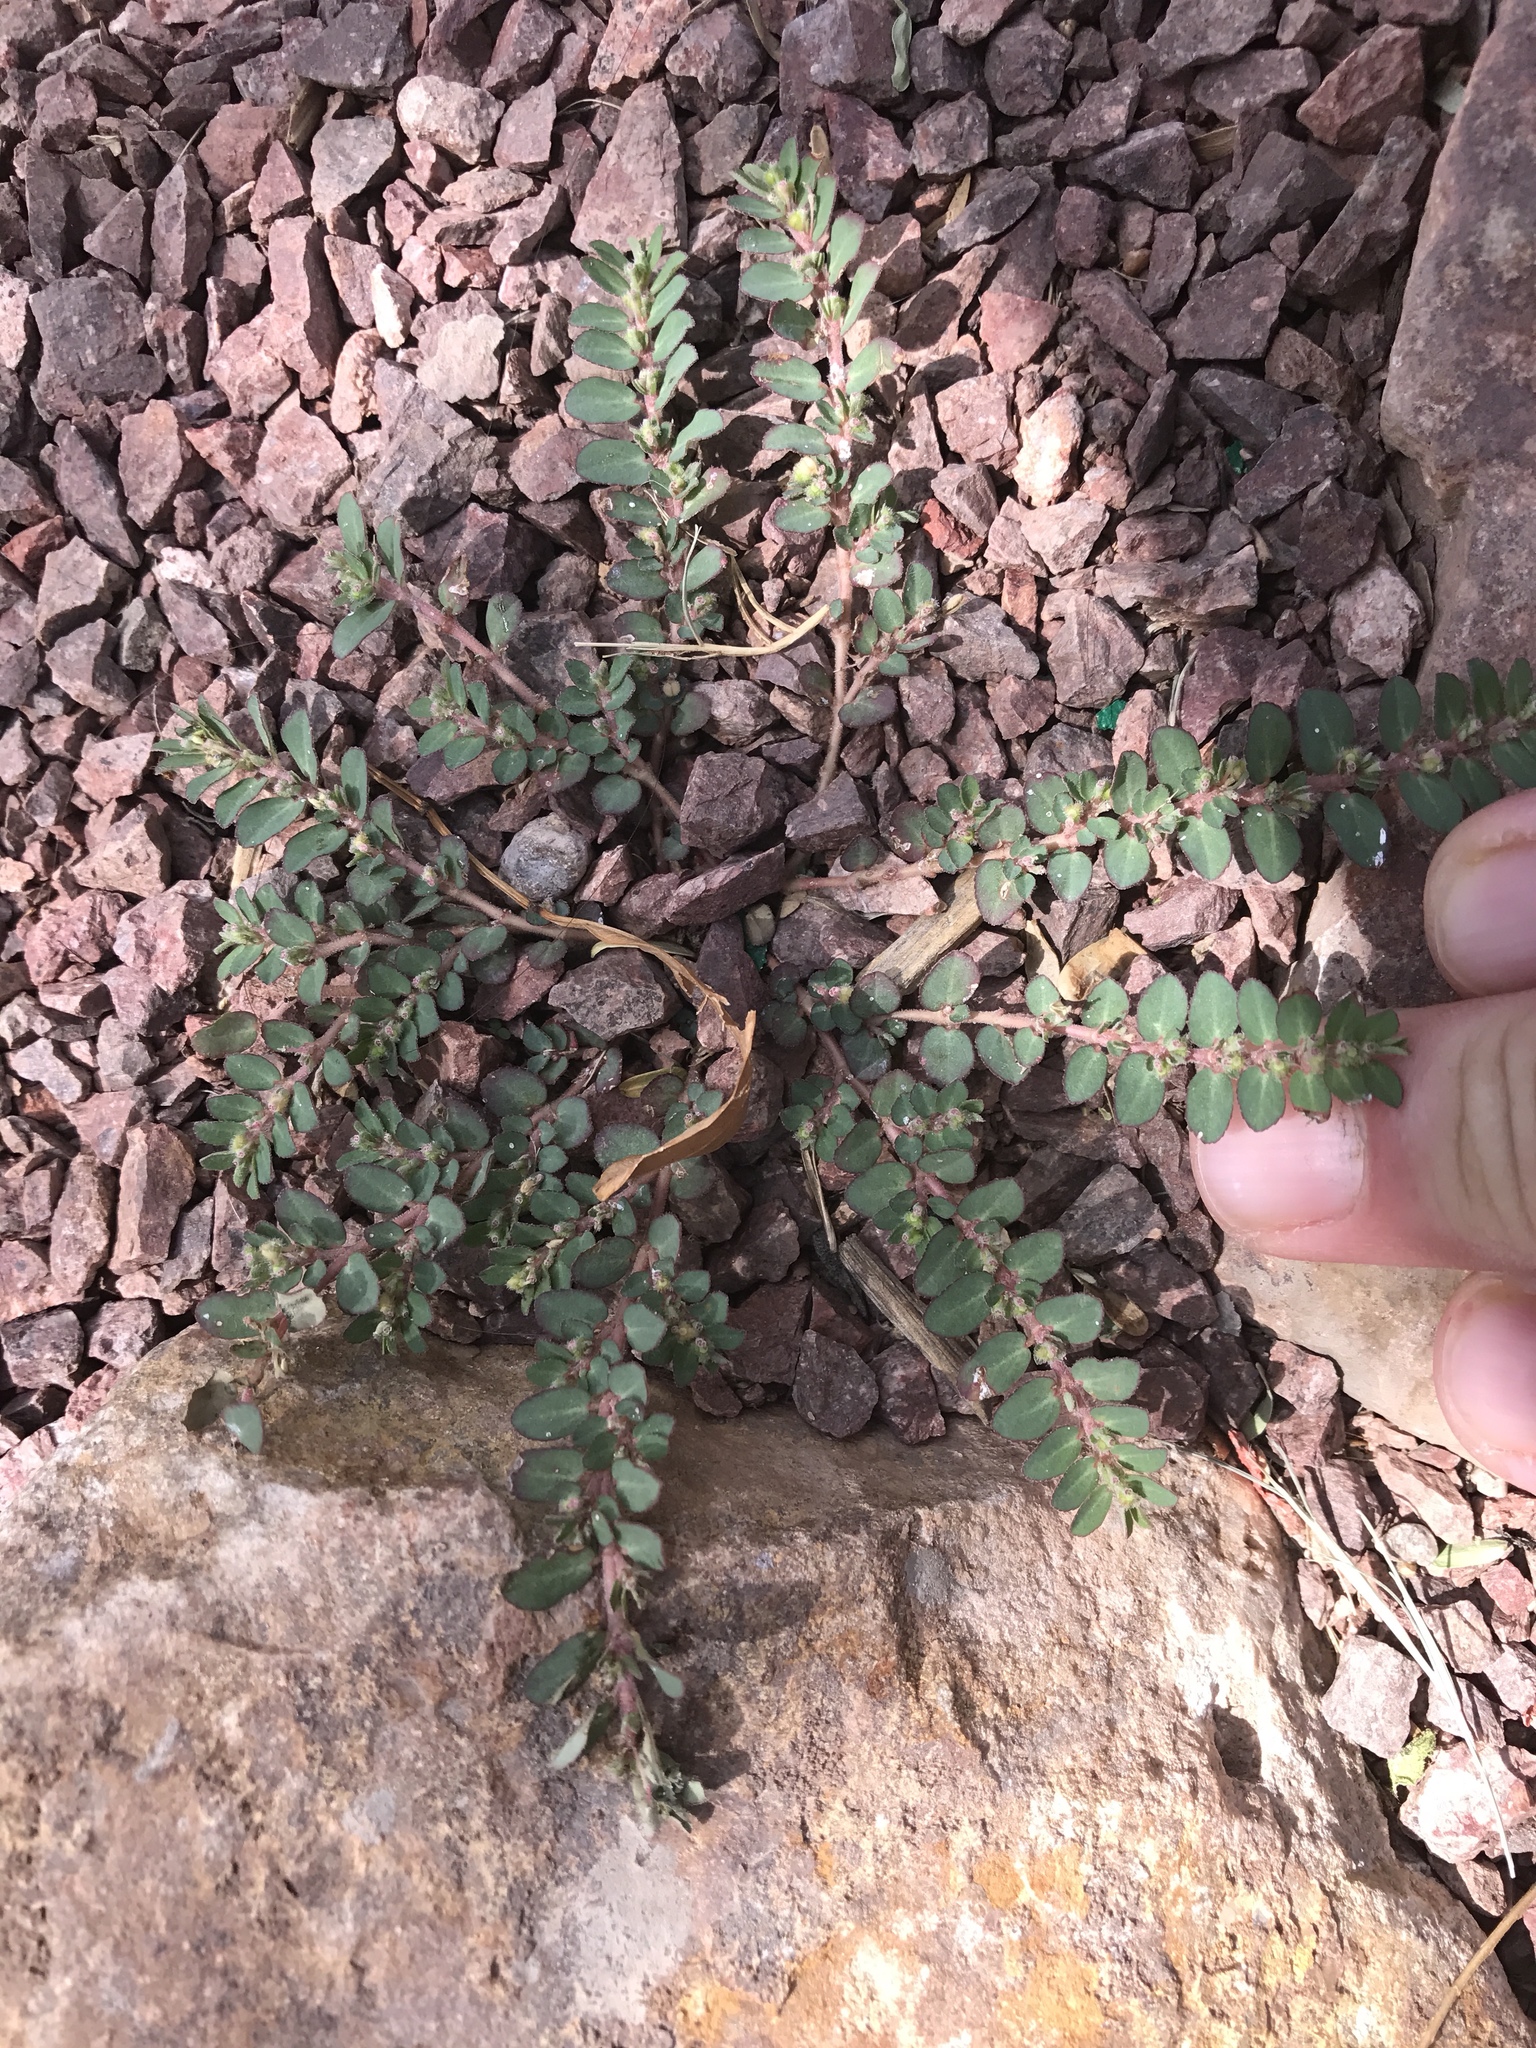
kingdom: Plantae
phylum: Tracheophyta
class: Magnoliopsida
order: Malpighiales
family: Euphorbiaceae
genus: Euphorbia
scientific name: Euphorbia prostrata
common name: Prostrate sandmat
